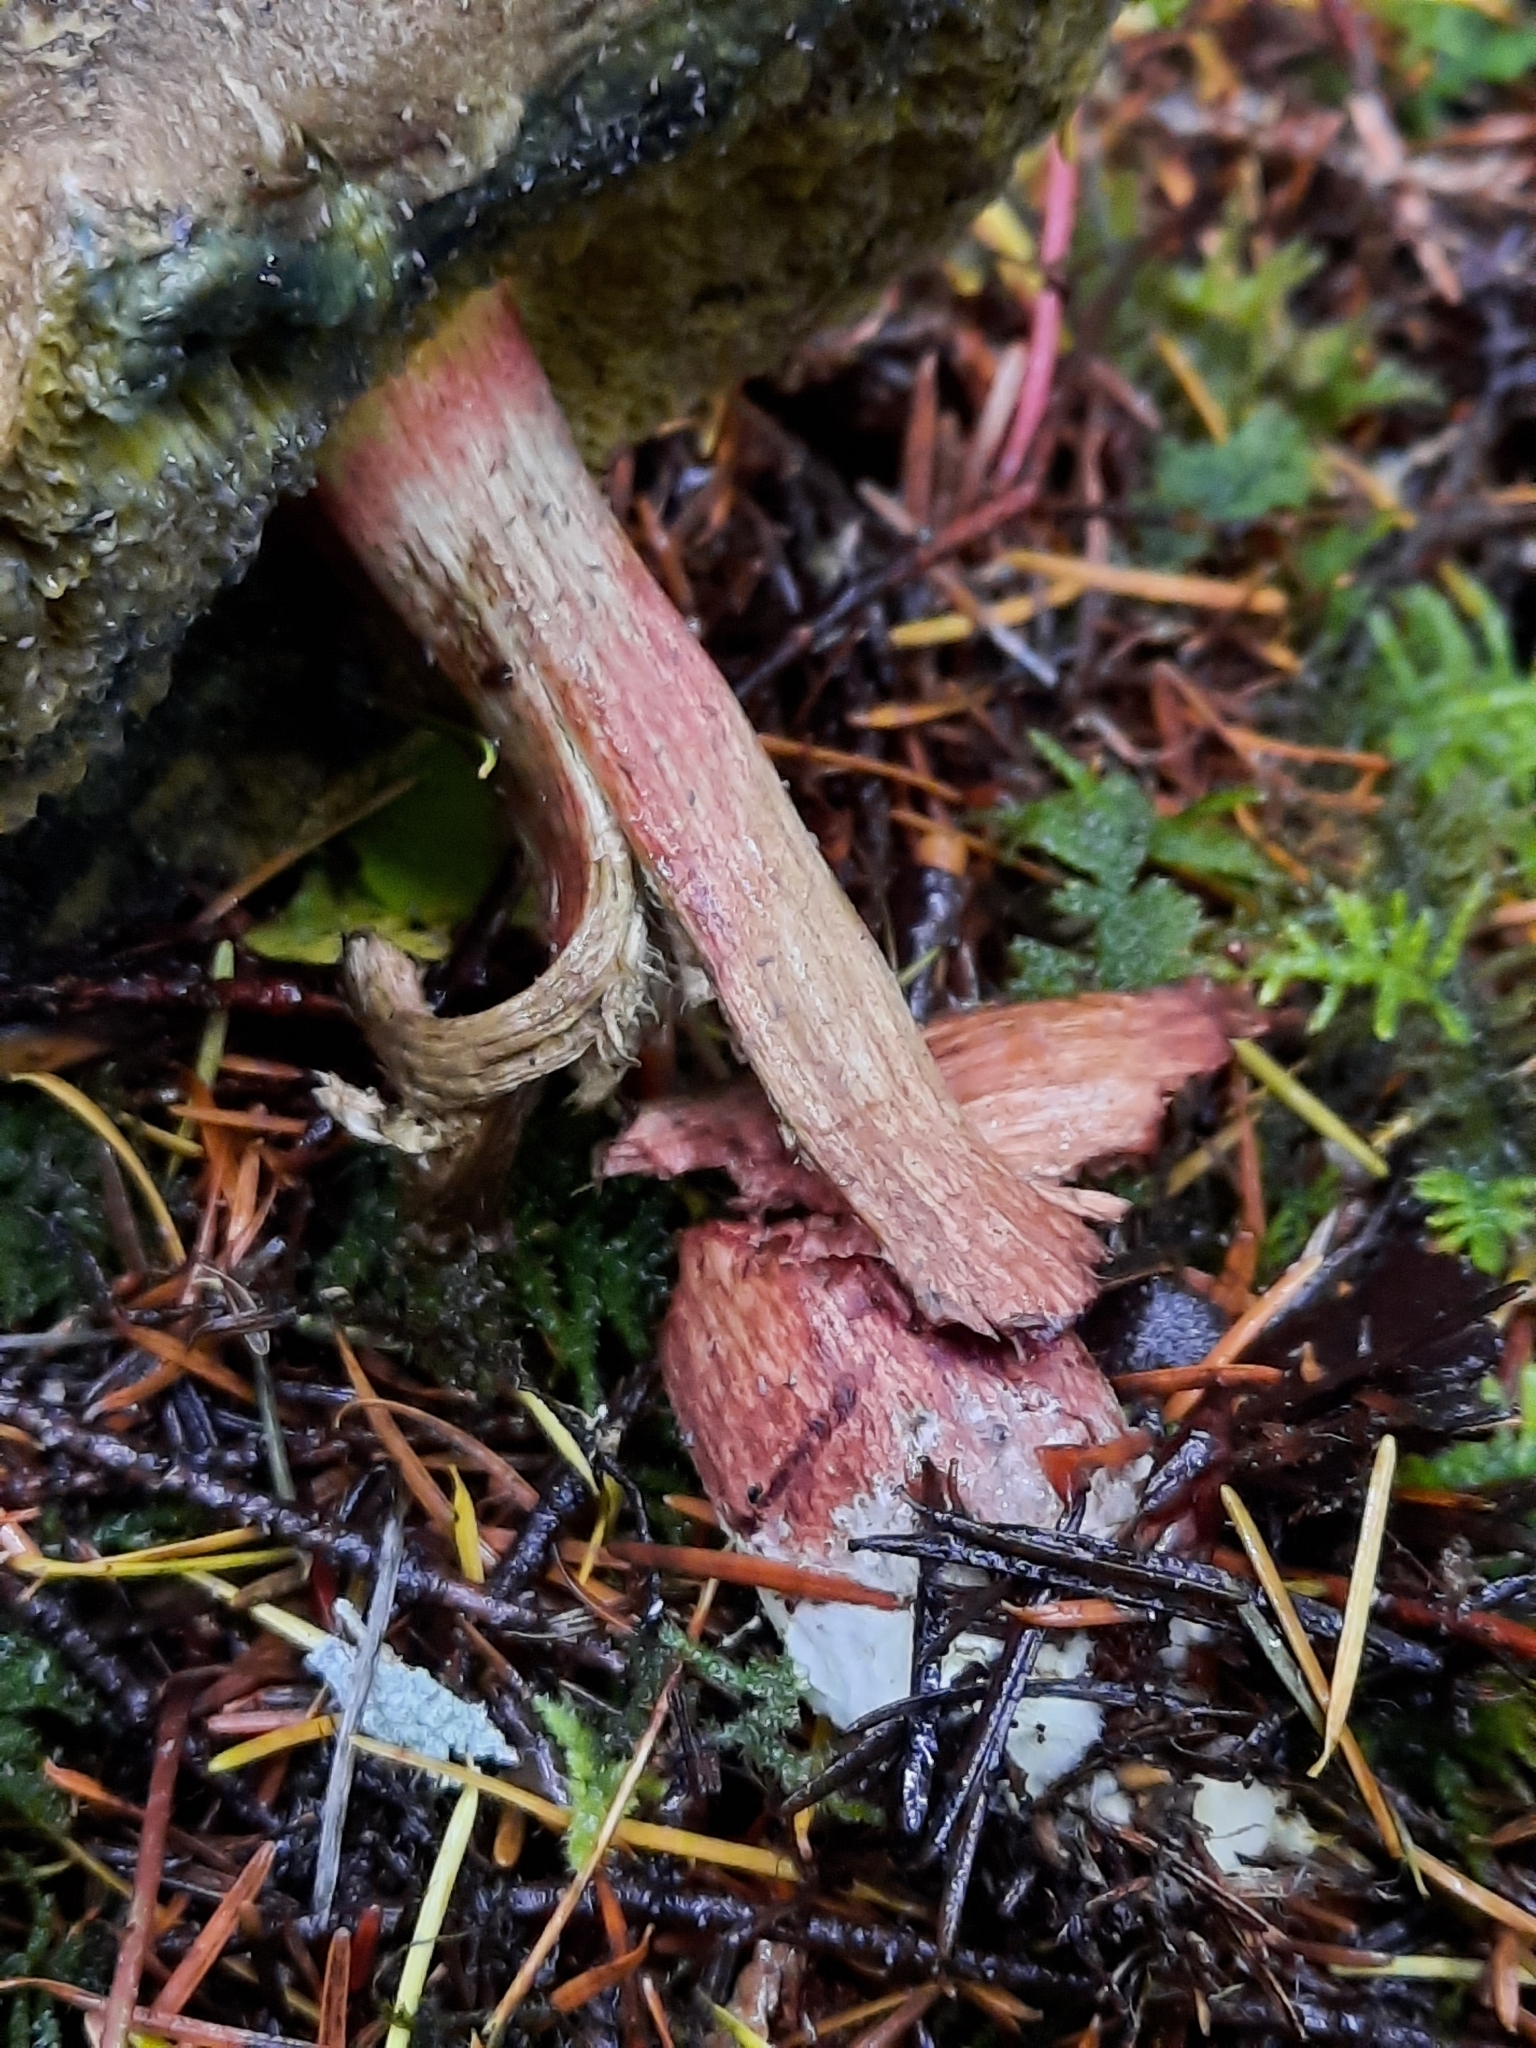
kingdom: Fungi
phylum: Basidiomycota
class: Agaricomycetes
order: Boletales
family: Boletaceae
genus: Xerocomellus
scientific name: Xerocomellus mendocinensis
